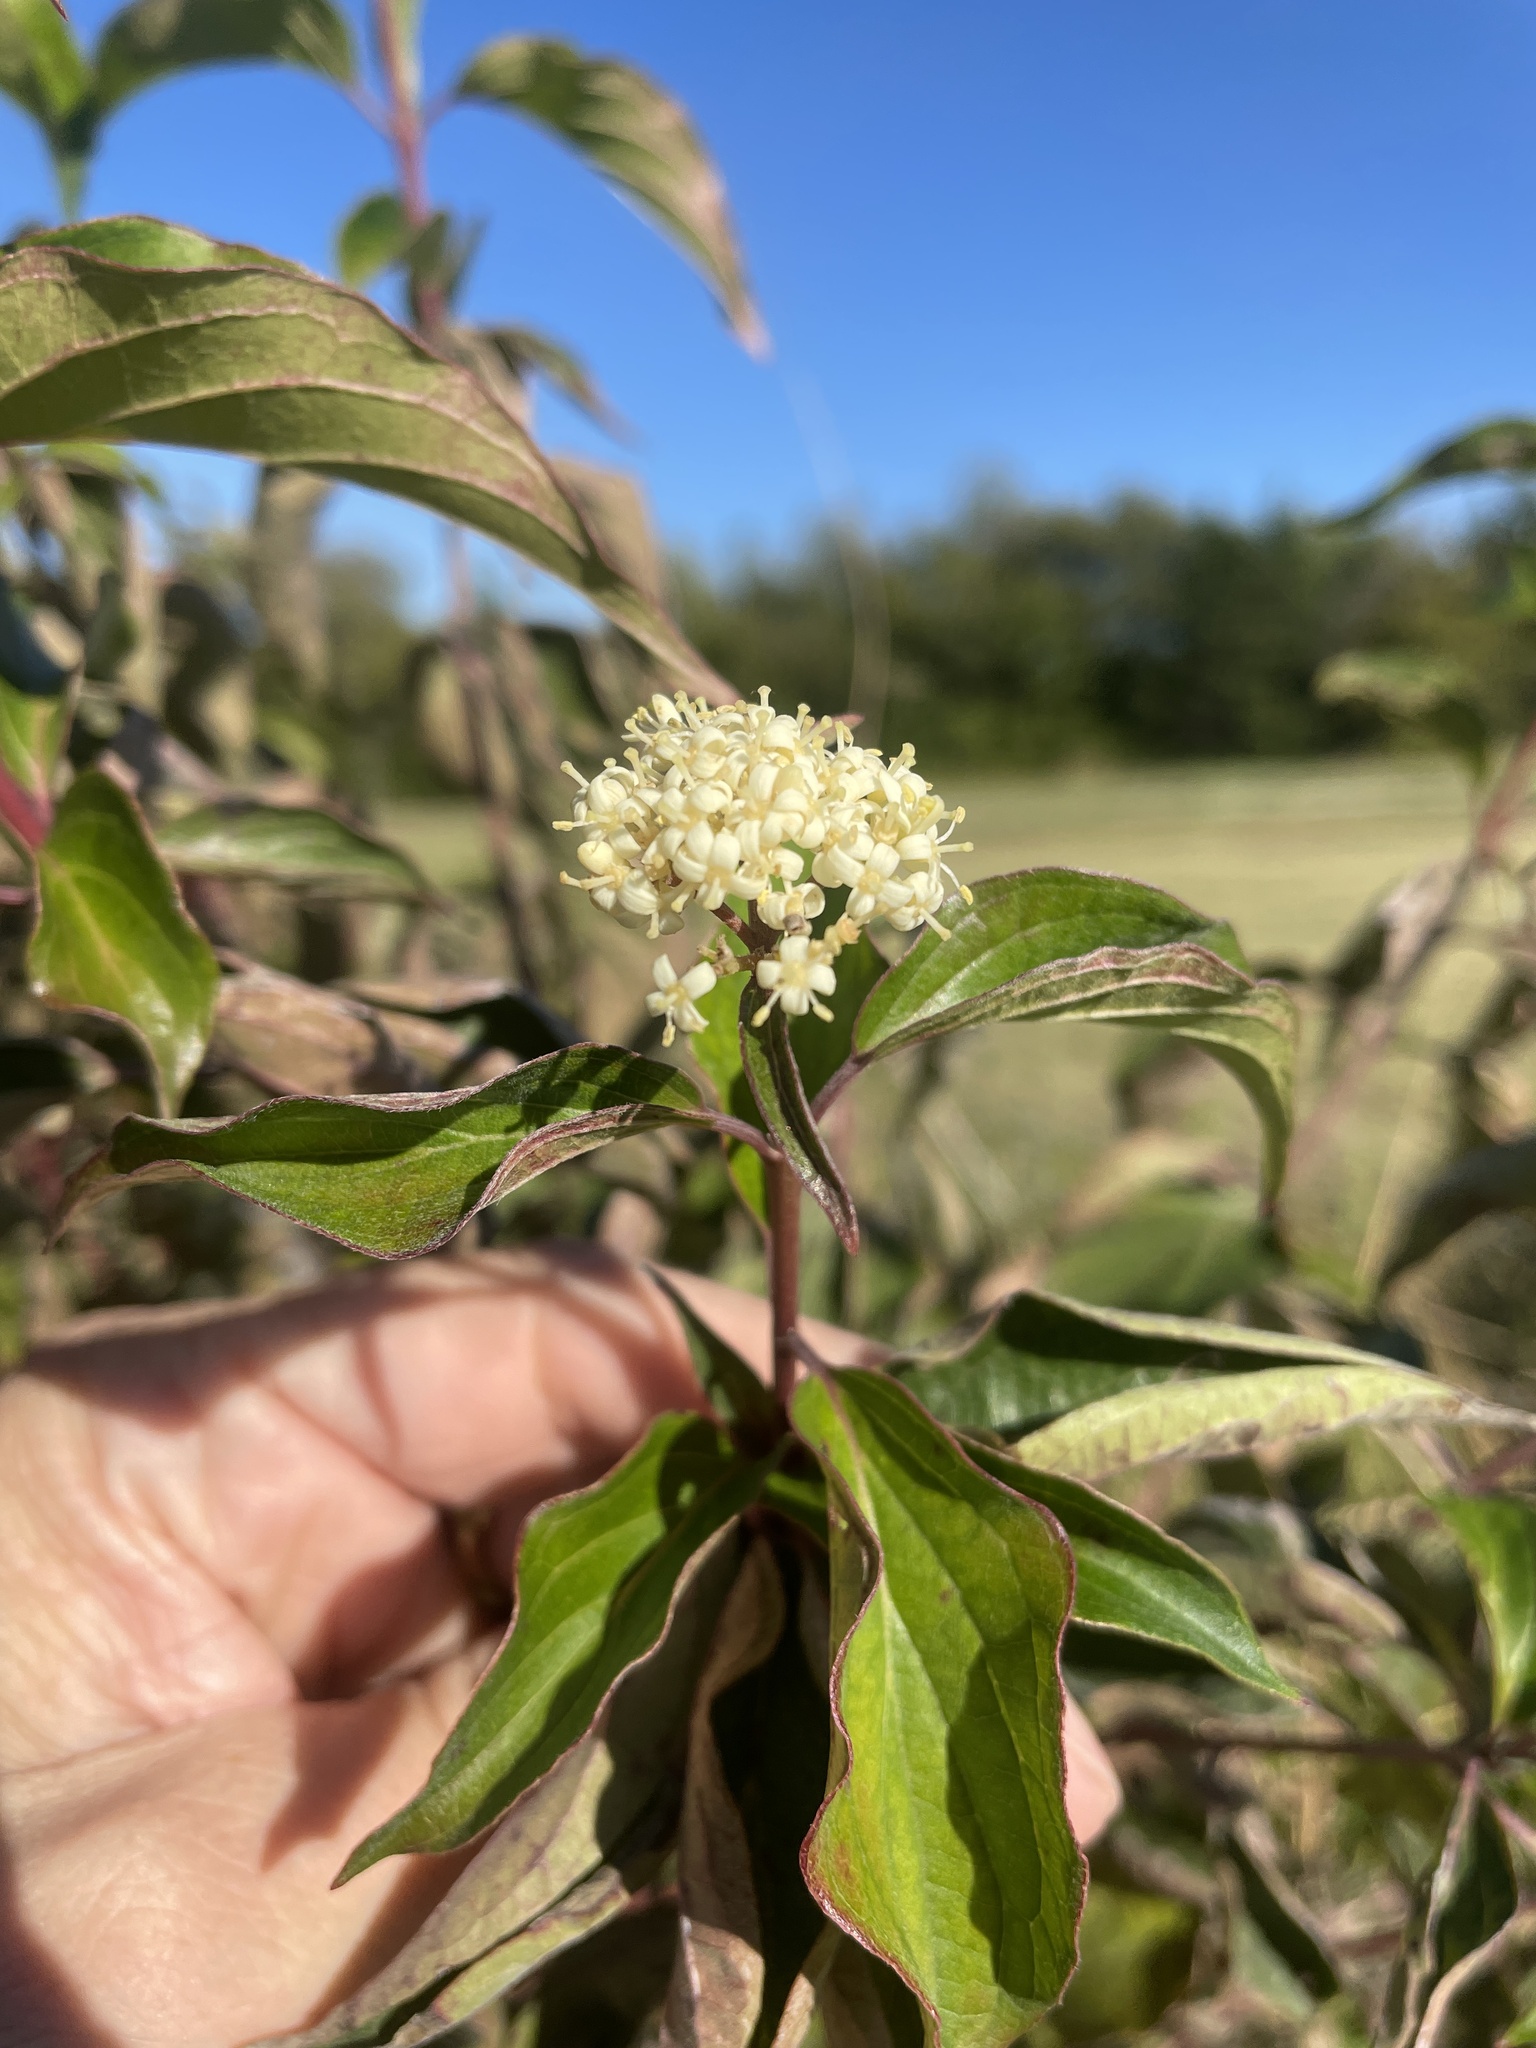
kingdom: Plantae
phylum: Tracheophyta
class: Magnoliopsida
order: Cornales
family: Cornaceae
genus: Cornus
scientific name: Cornus drummondii
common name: Rough-leaf dogwood
